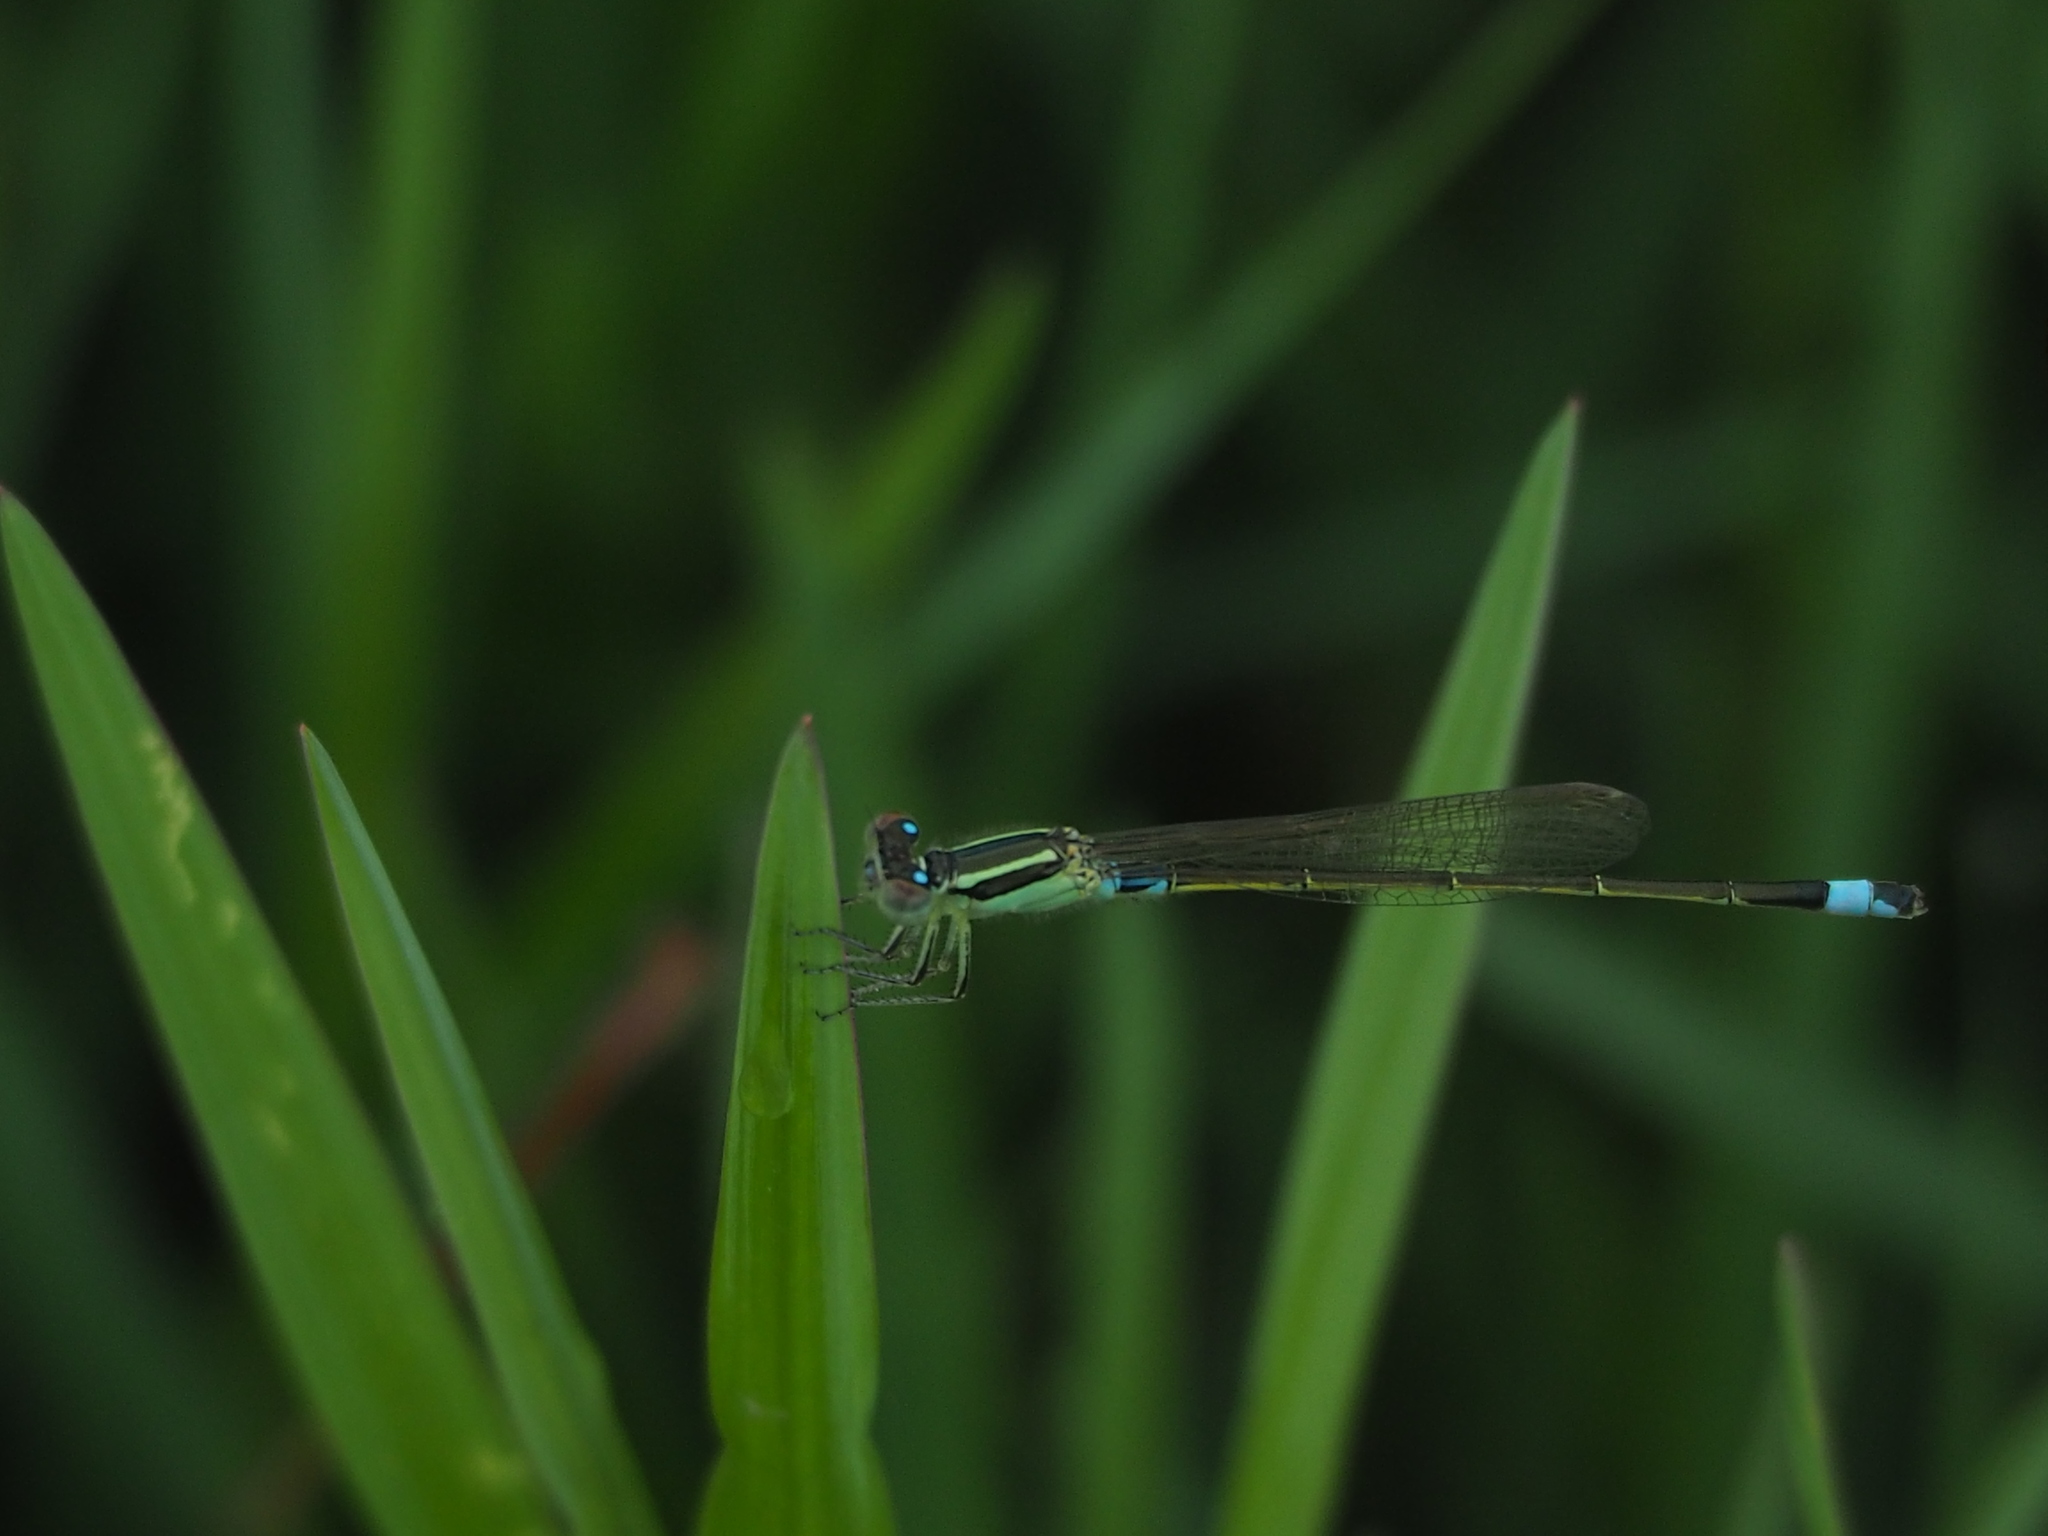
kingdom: Animalia
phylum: Arthropoda
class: Insecta
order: Odonata
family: Coenagrionidae
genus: Ischnura
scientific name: Ischnura senegalensis
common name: Tropical bluetail
